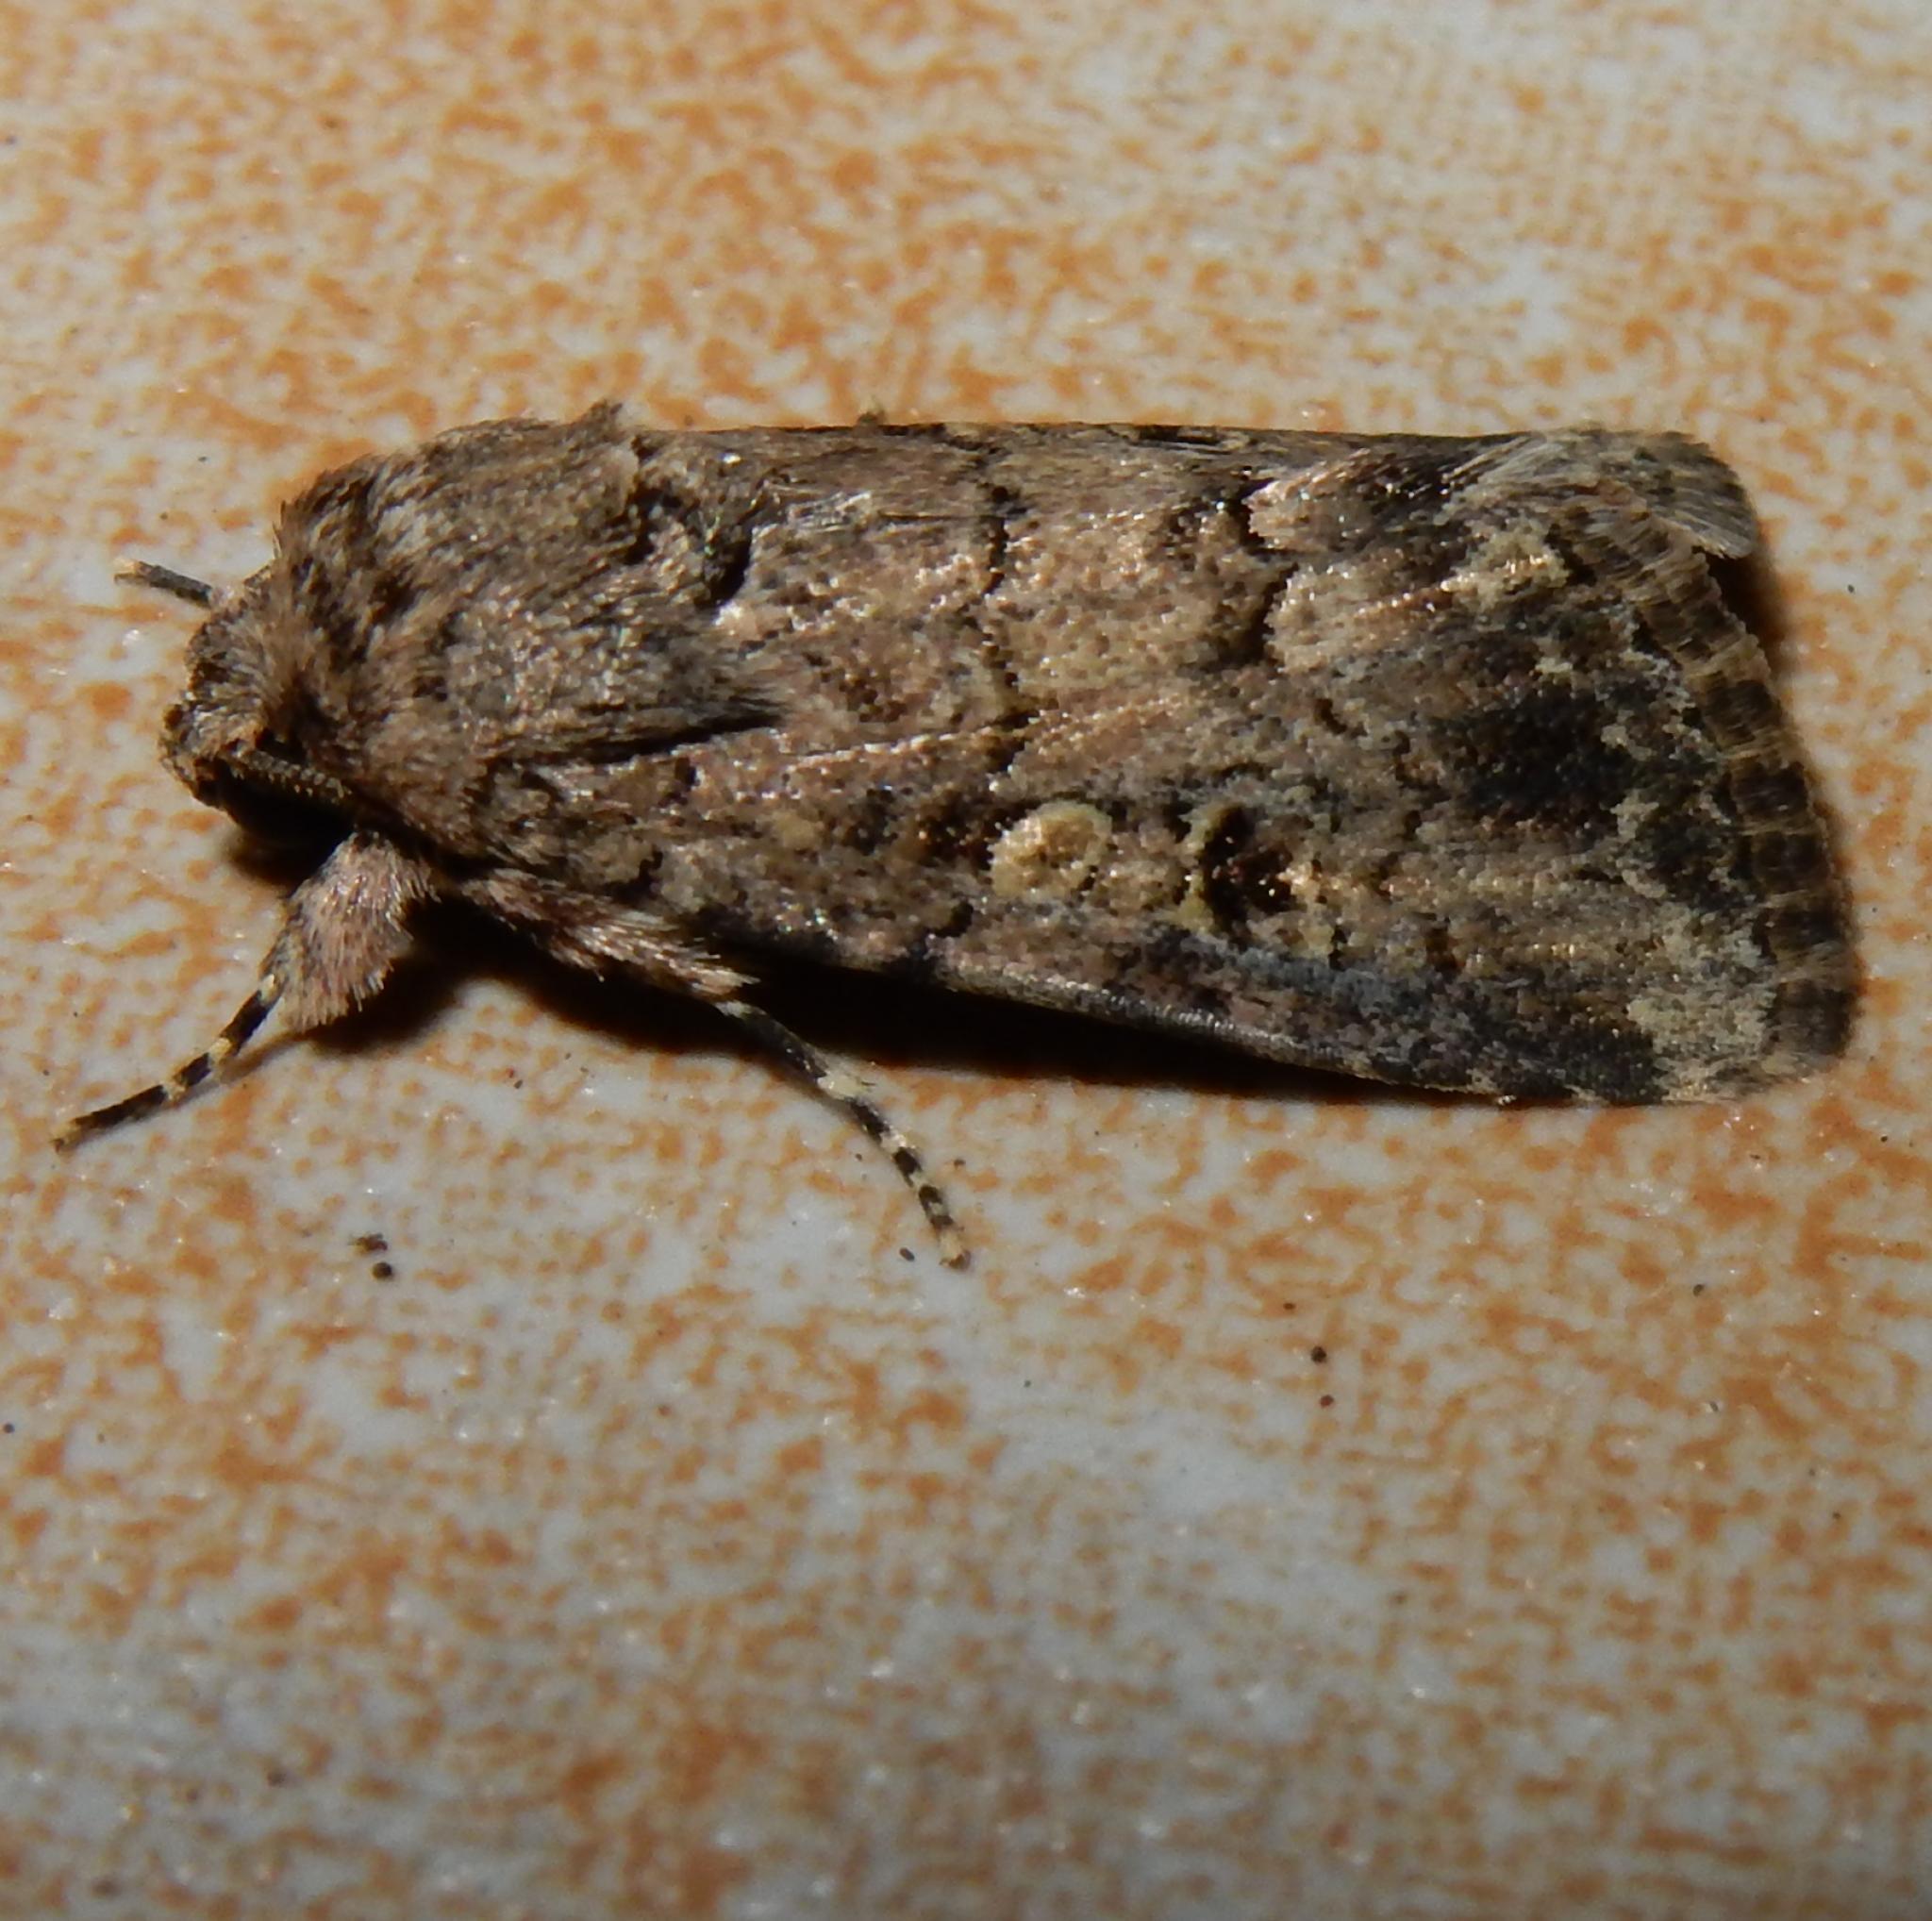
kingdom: Animalia
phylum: Arthropoda
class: Insecta
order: Lepidoptera
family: Noctuidae
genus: Spodoptera
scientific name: Spodoptera triturata
